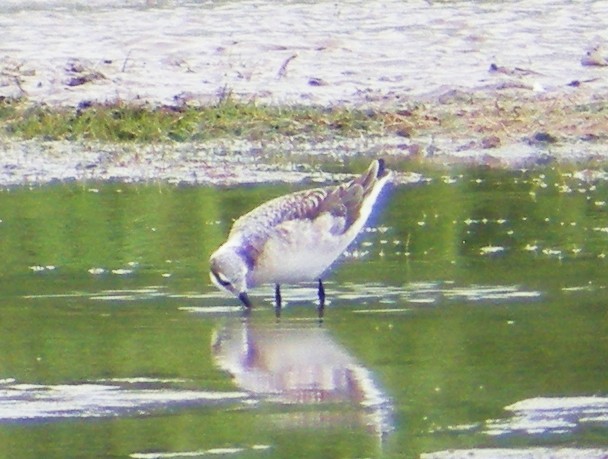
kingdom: Animalia
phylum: Chordata
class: Aves
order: Charadriiformes
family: Scolopacidae
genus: Phalaropus
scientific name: Phalaropus tricolor
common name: Wilson's phalarope
